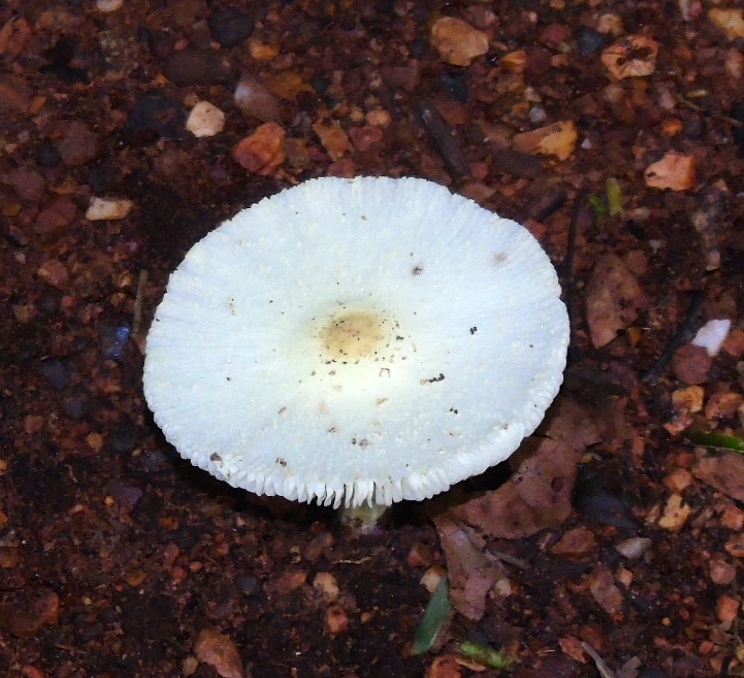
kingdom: Fungi
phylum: Basidiomycota
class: Agaricomycetes
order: Agaricales
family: Agaricaceae
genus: Leucocoprinus
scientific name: Leucocoprinus
